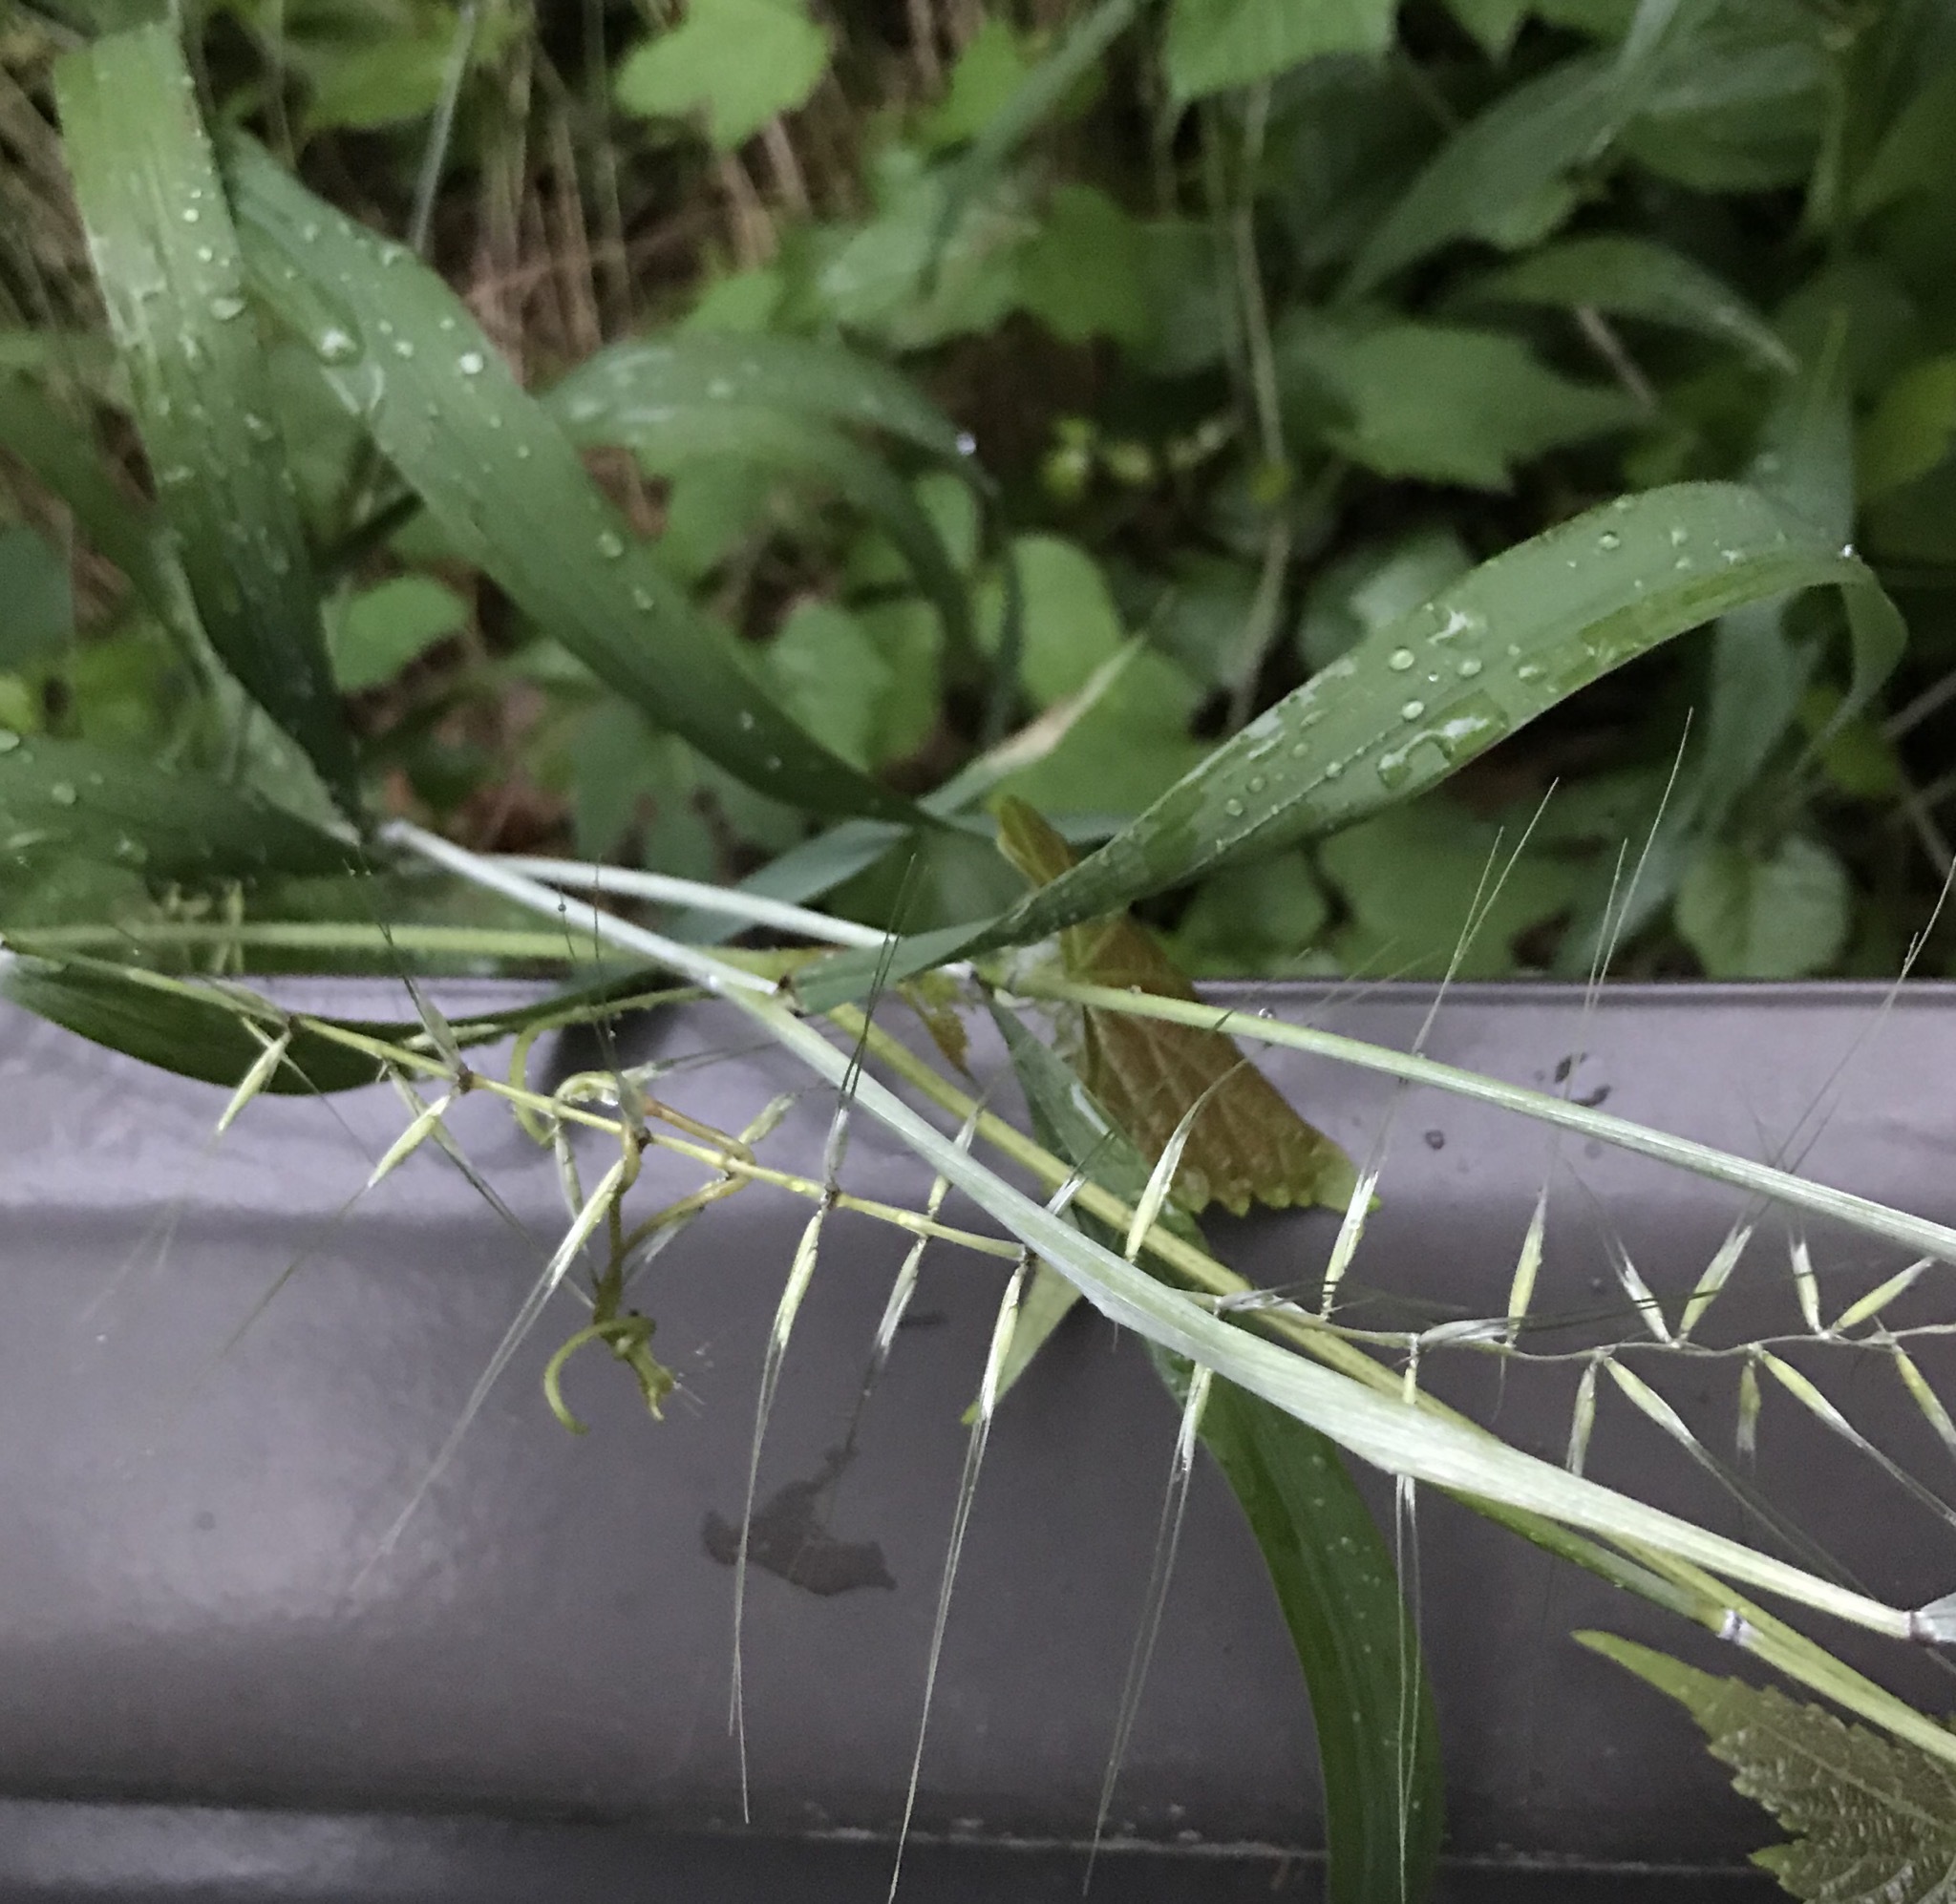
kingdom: Plantae
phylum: Tracheophyta
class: Liliopsida
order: Poales
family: Poaceae
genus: Elymus
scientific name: Elymus hystrix
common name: Bottlebrush grass
